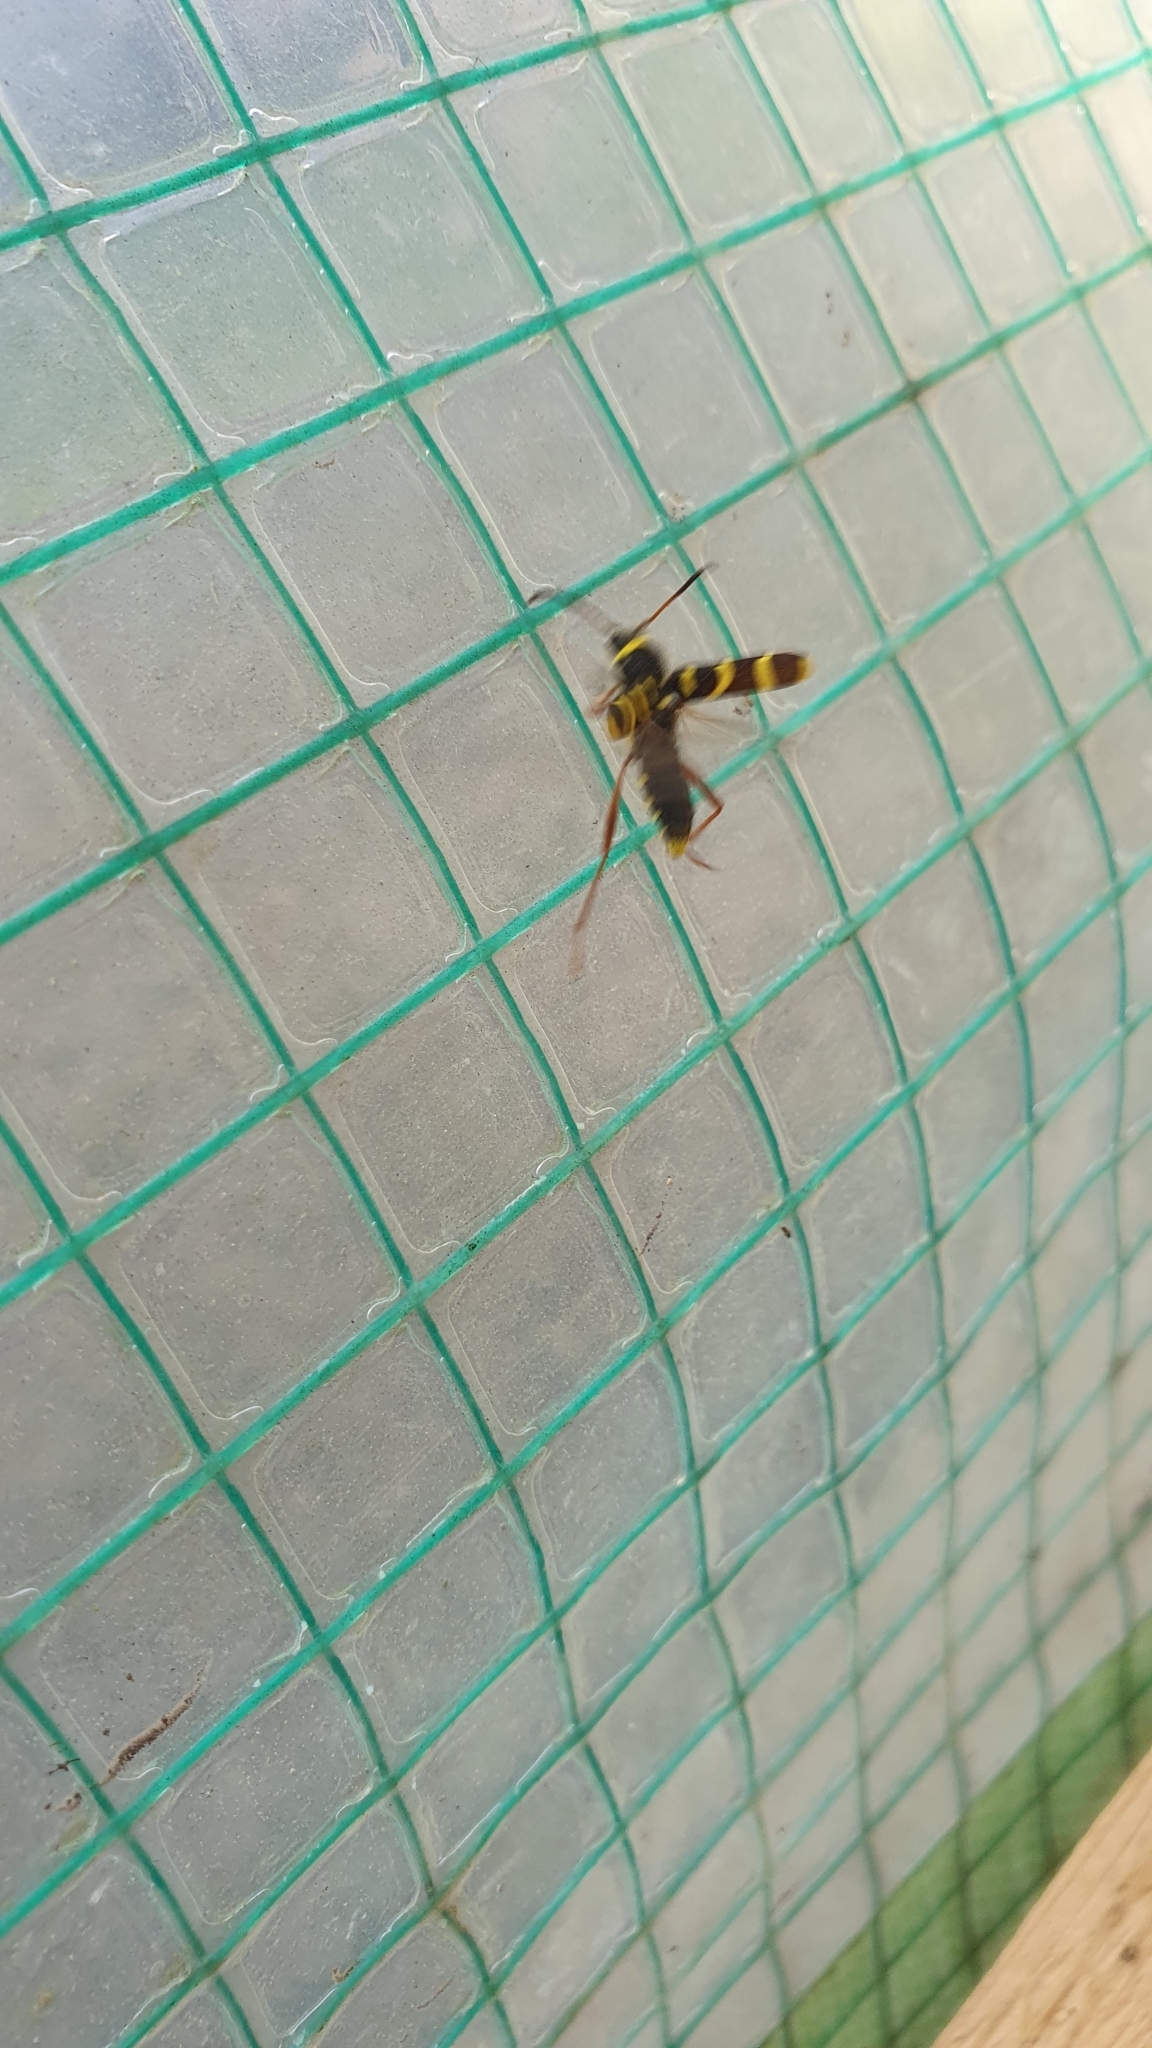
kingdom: Animalia
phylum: Arthropoda
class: Insecta
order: Coleoptera
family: Cerambycidae
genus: Clytus
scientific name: Clytus arietis
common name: Wasp beetle
